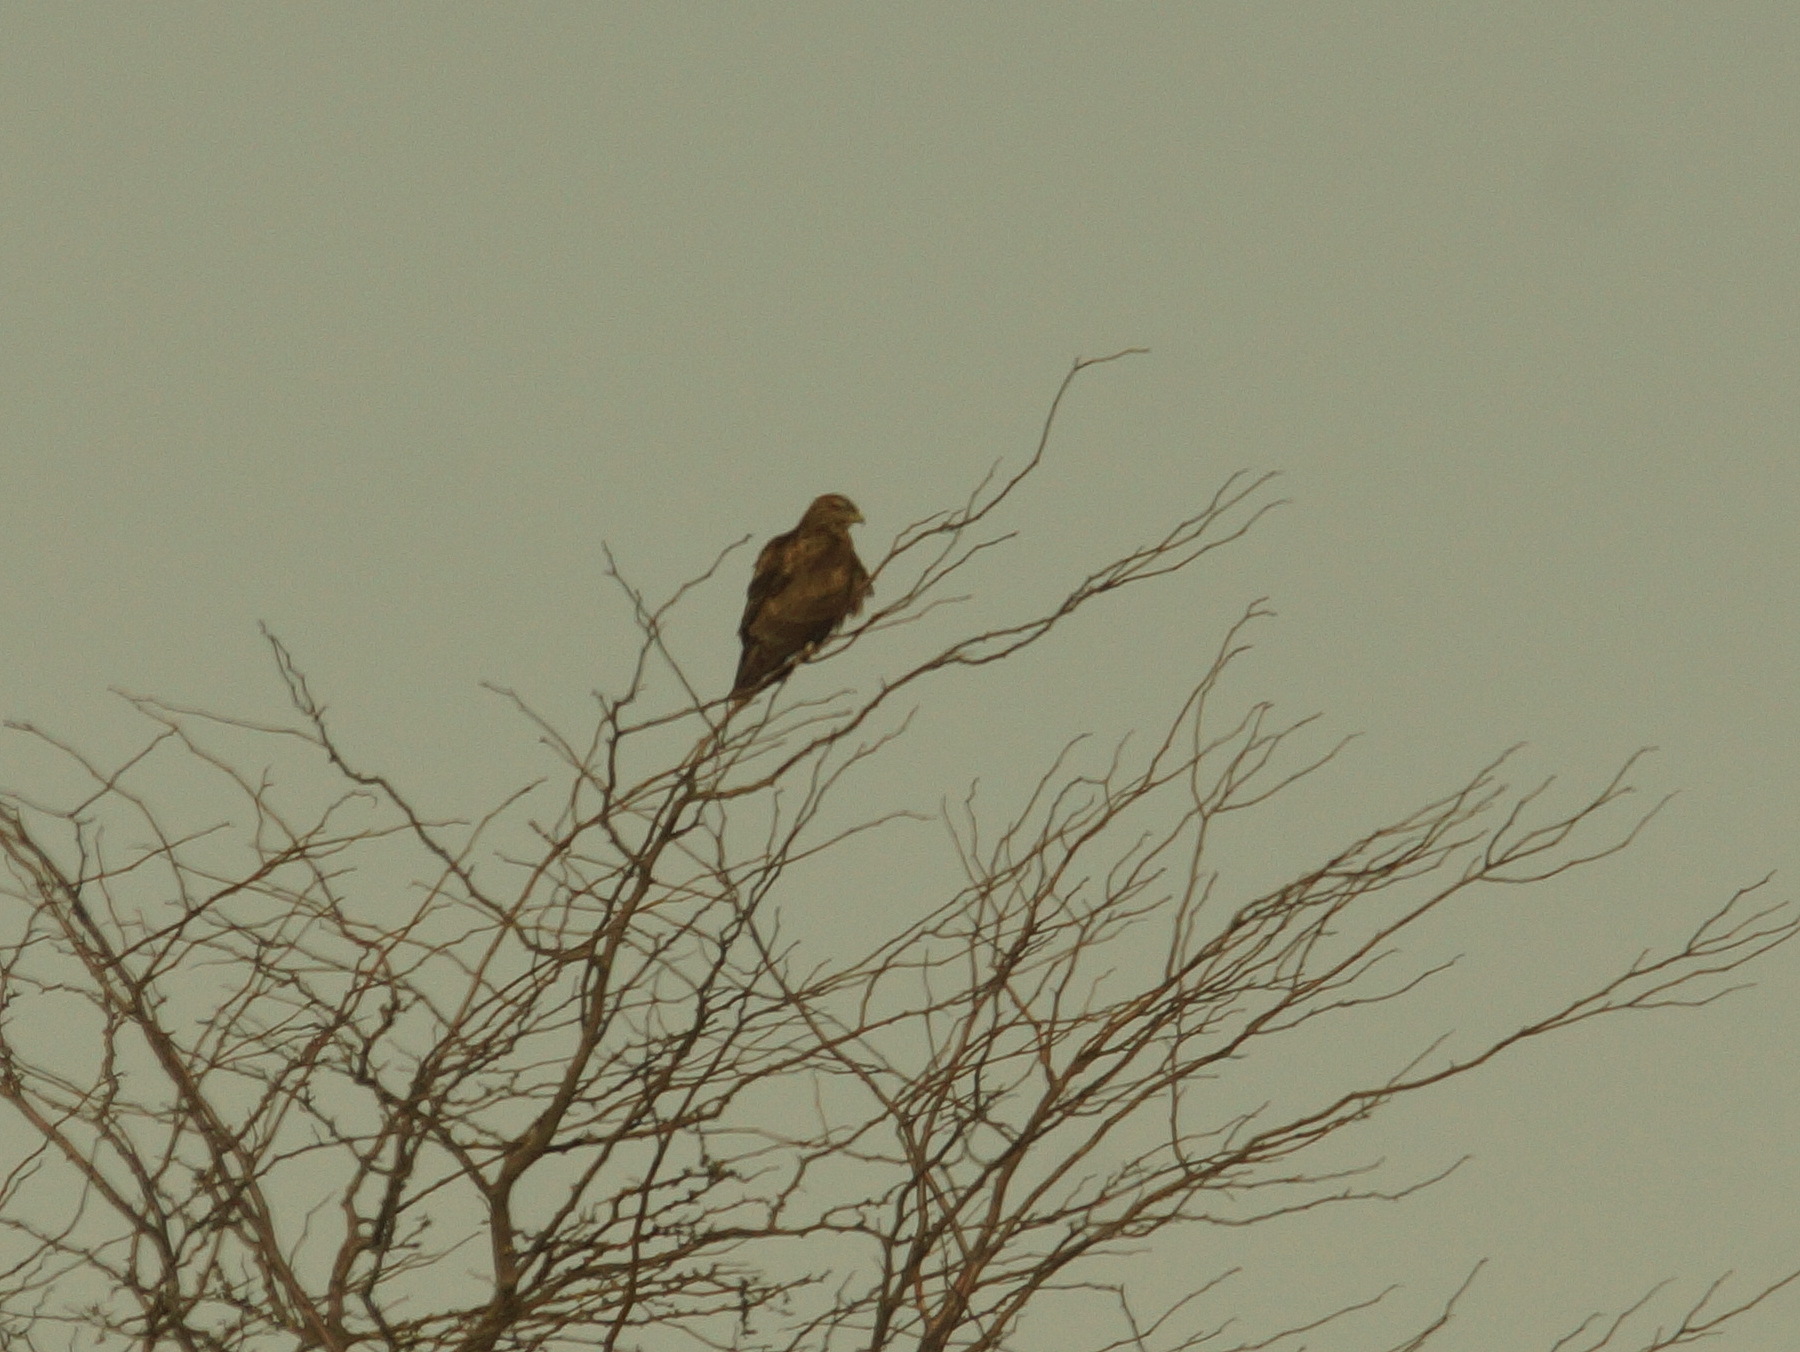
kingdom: Animalia
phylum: Chordata
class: Aves
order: Accipitriformes
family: Accipitridae
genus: Buteo
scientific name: Buteo buteo
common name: Common buzzard
